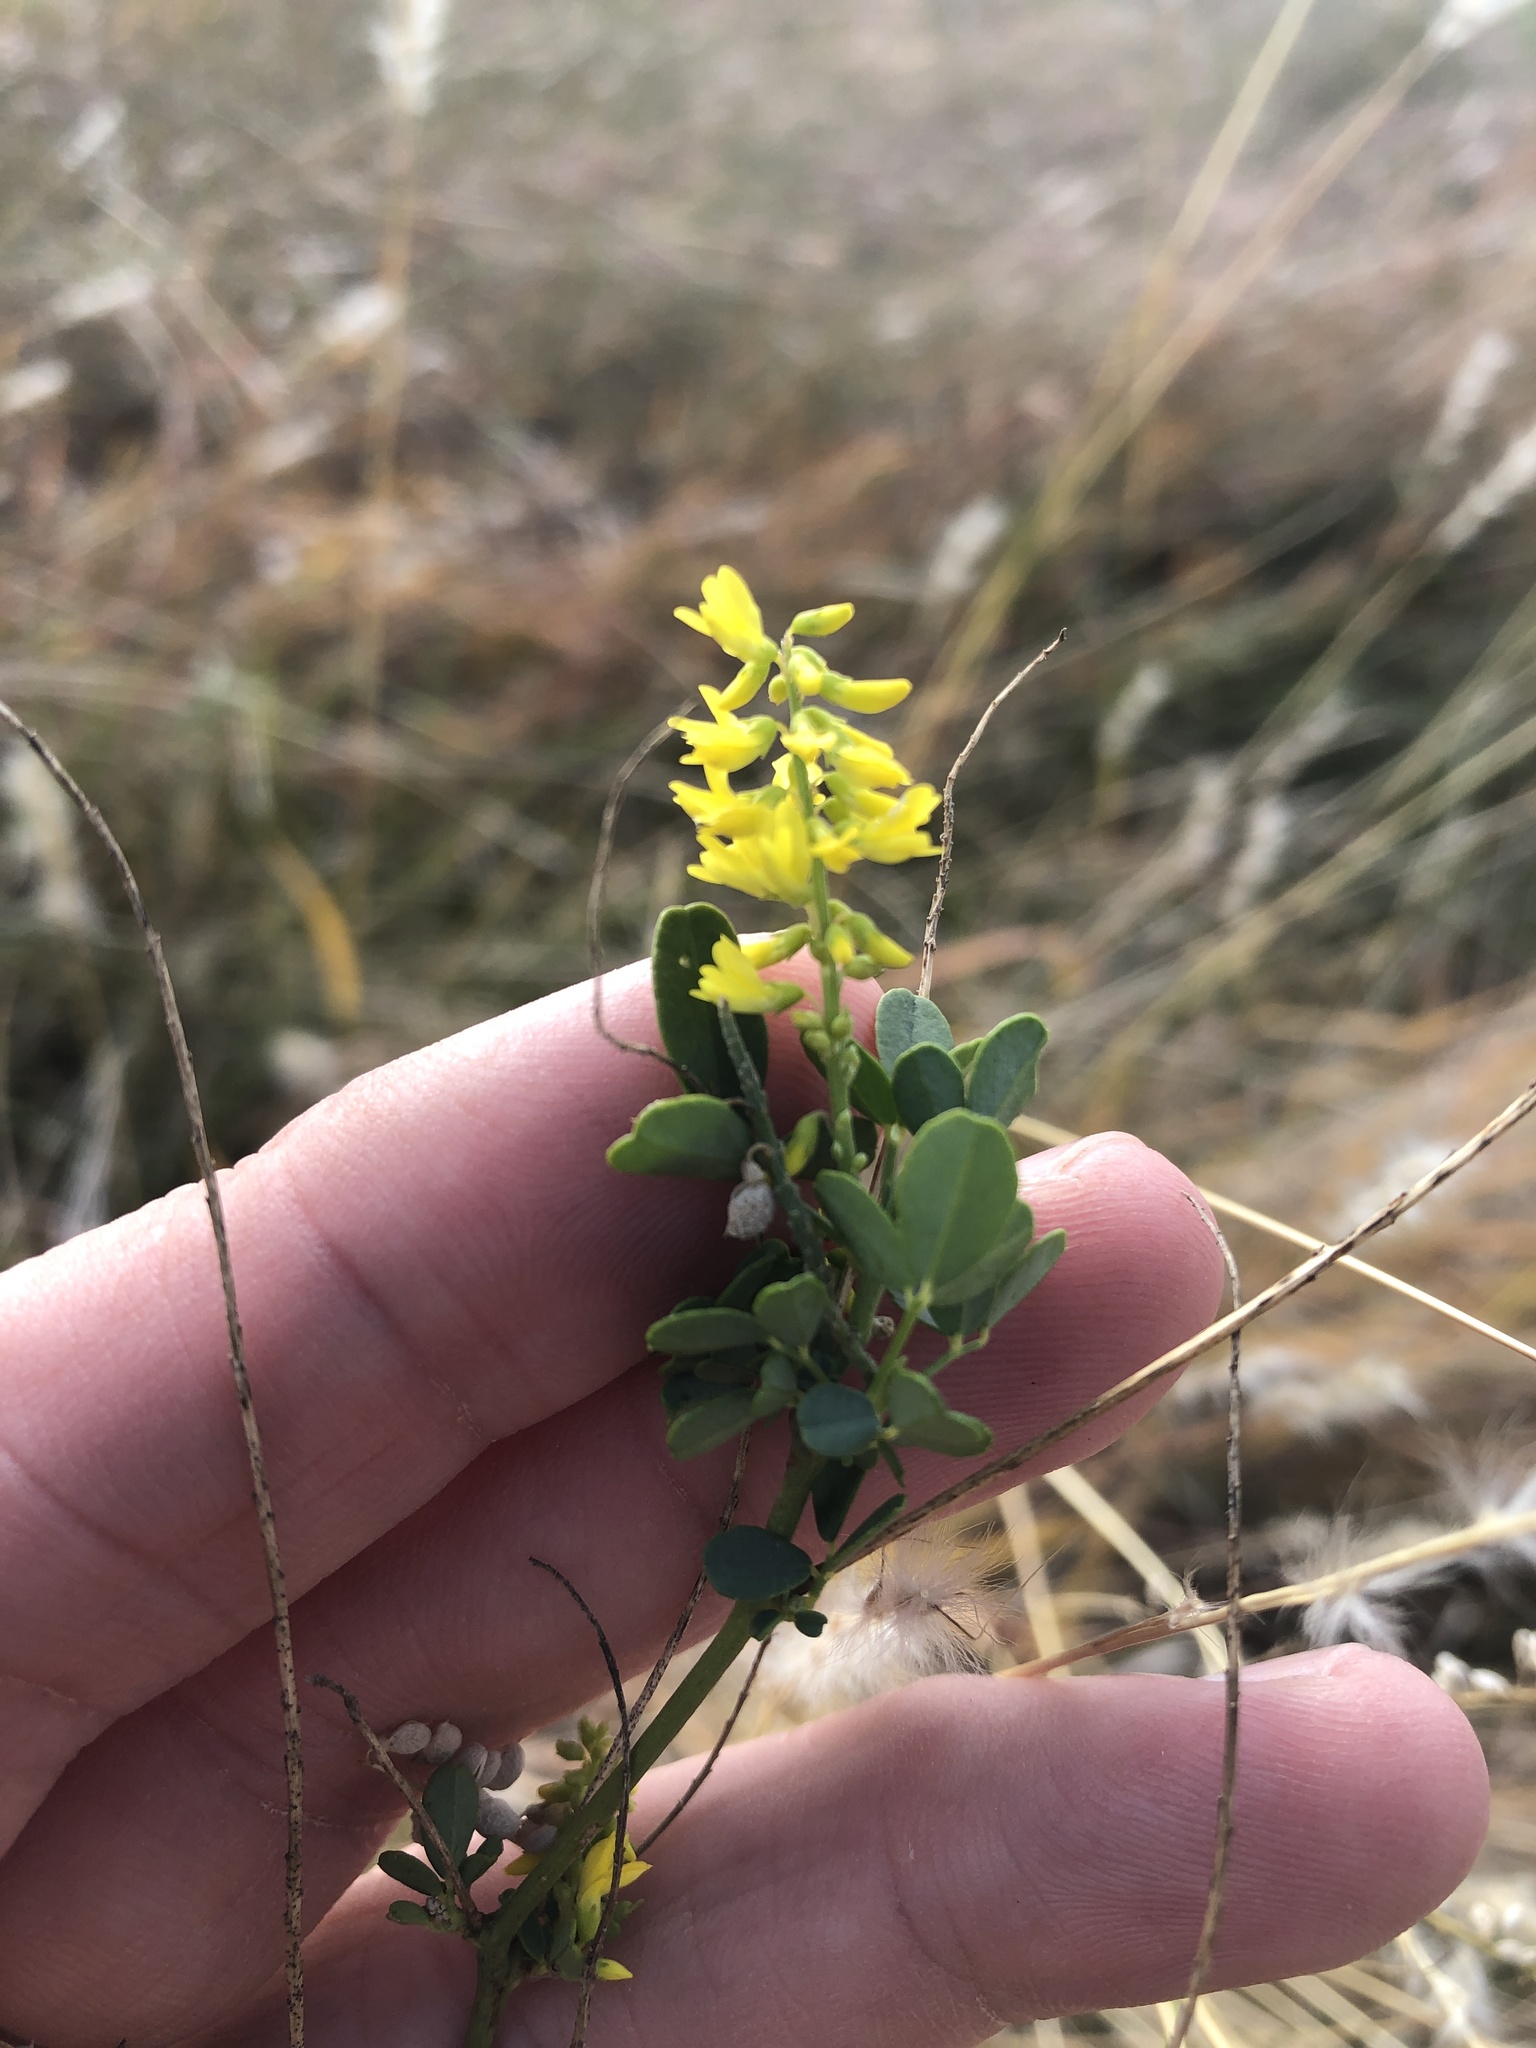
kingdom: Plantae
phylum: Tracheophyta
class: Magnoliopsida
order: Fabales
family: Fabaceae
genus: Melilotus
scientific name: Melilotus officinalis
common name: Sweetclover
